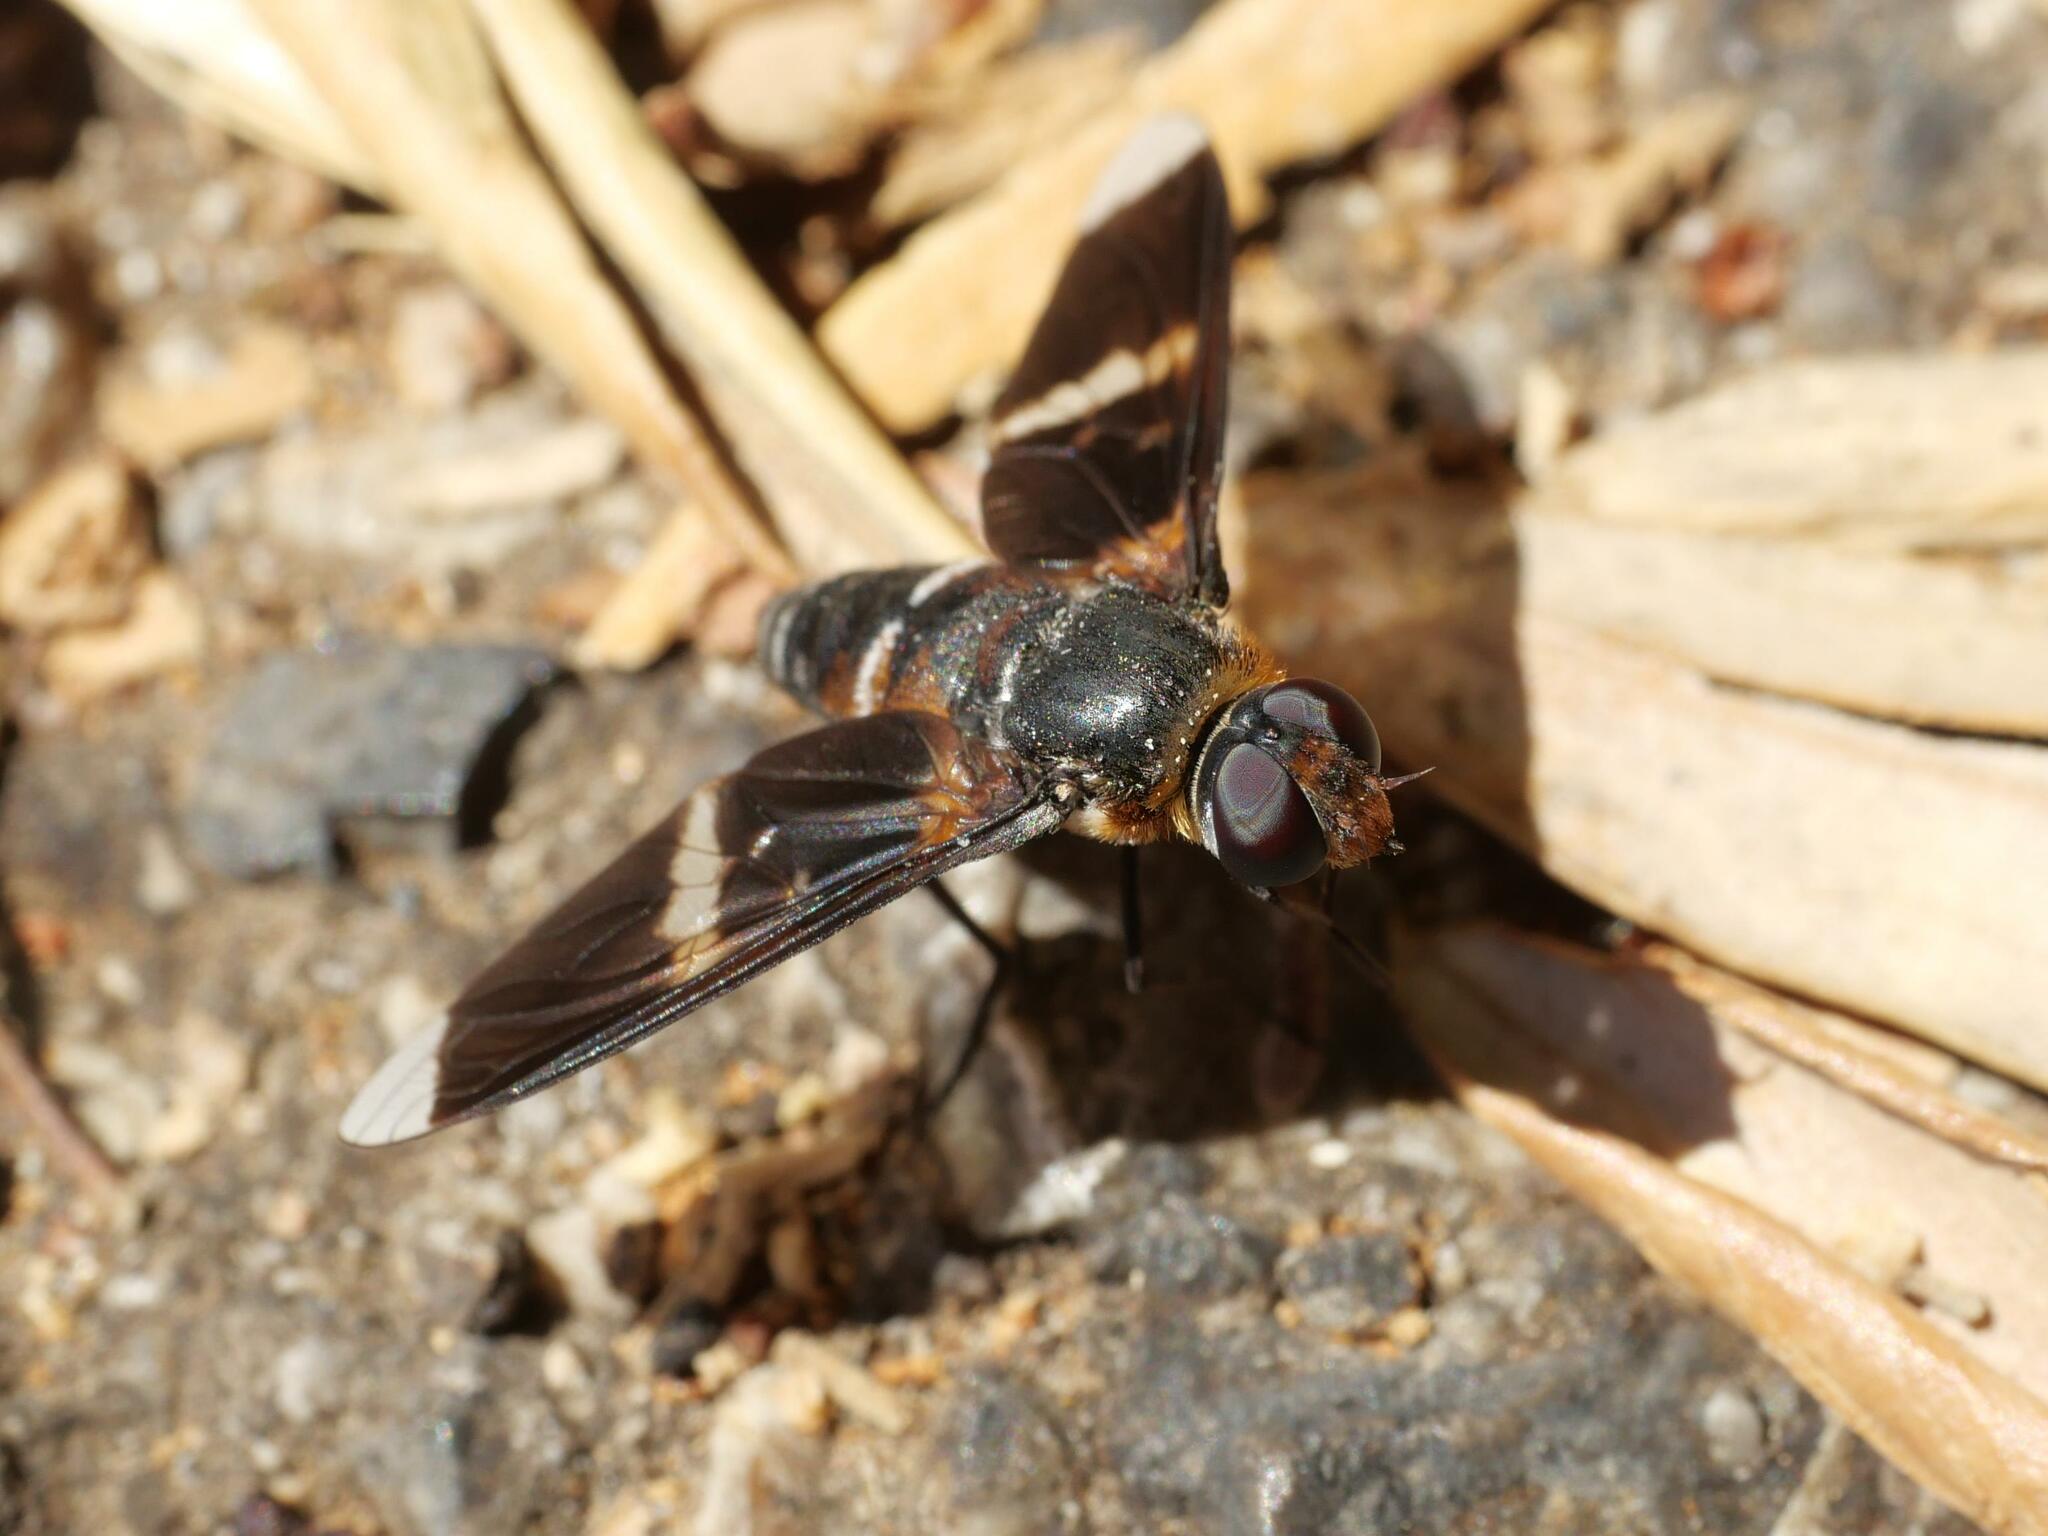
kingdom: Animalia
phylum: Arthropoda
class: Insecta
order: Diptera
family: Bombyliidae
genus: Exoprosopa
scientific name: Exoprosopa pectoralis
